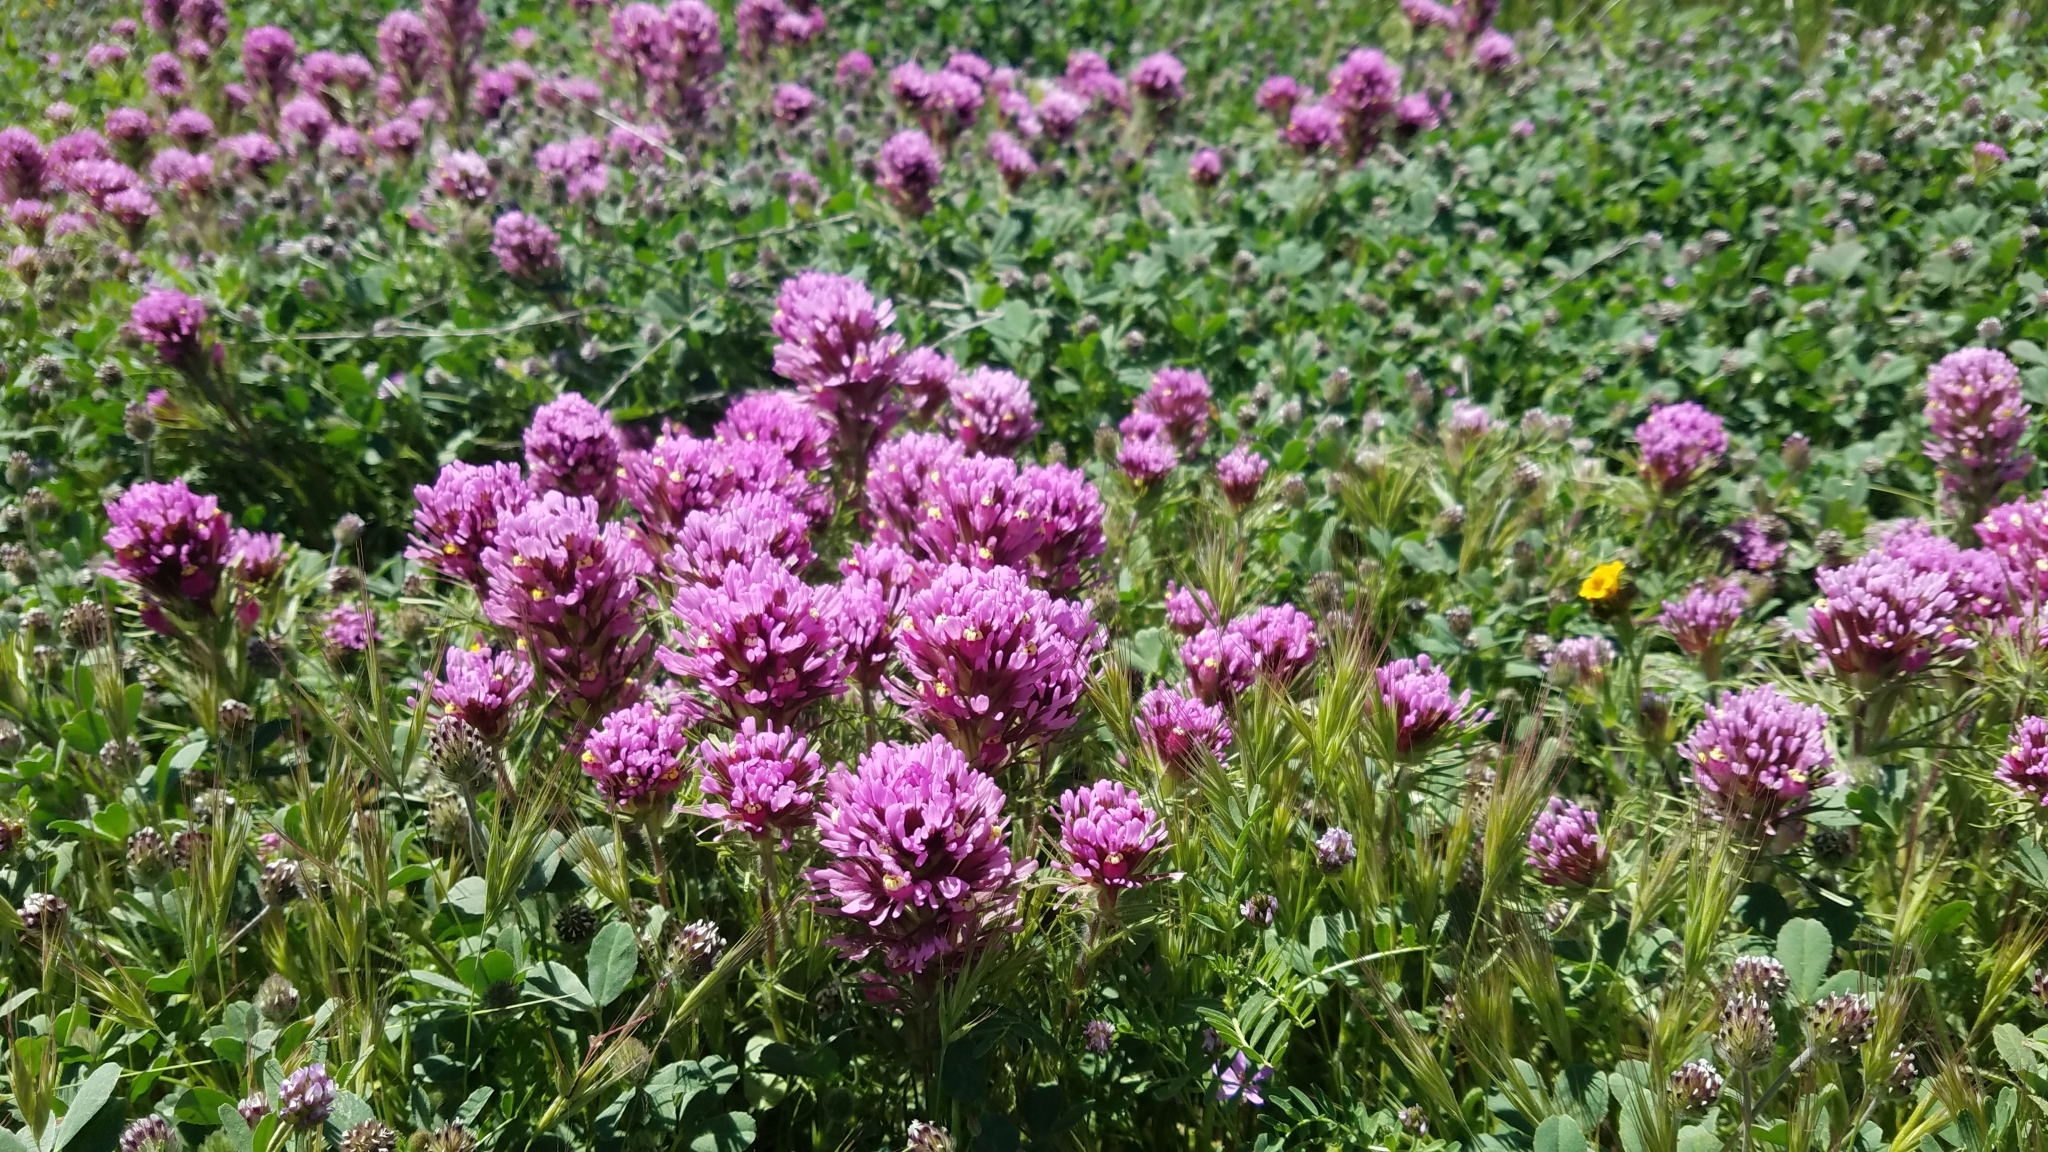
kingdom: Plantae
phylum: Tracheophyta
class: Magnoliopsida
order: Lamiales
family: Orobanchaceae
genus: Castilleja
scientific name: Castilleja exserta
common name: Purple owl-clover
